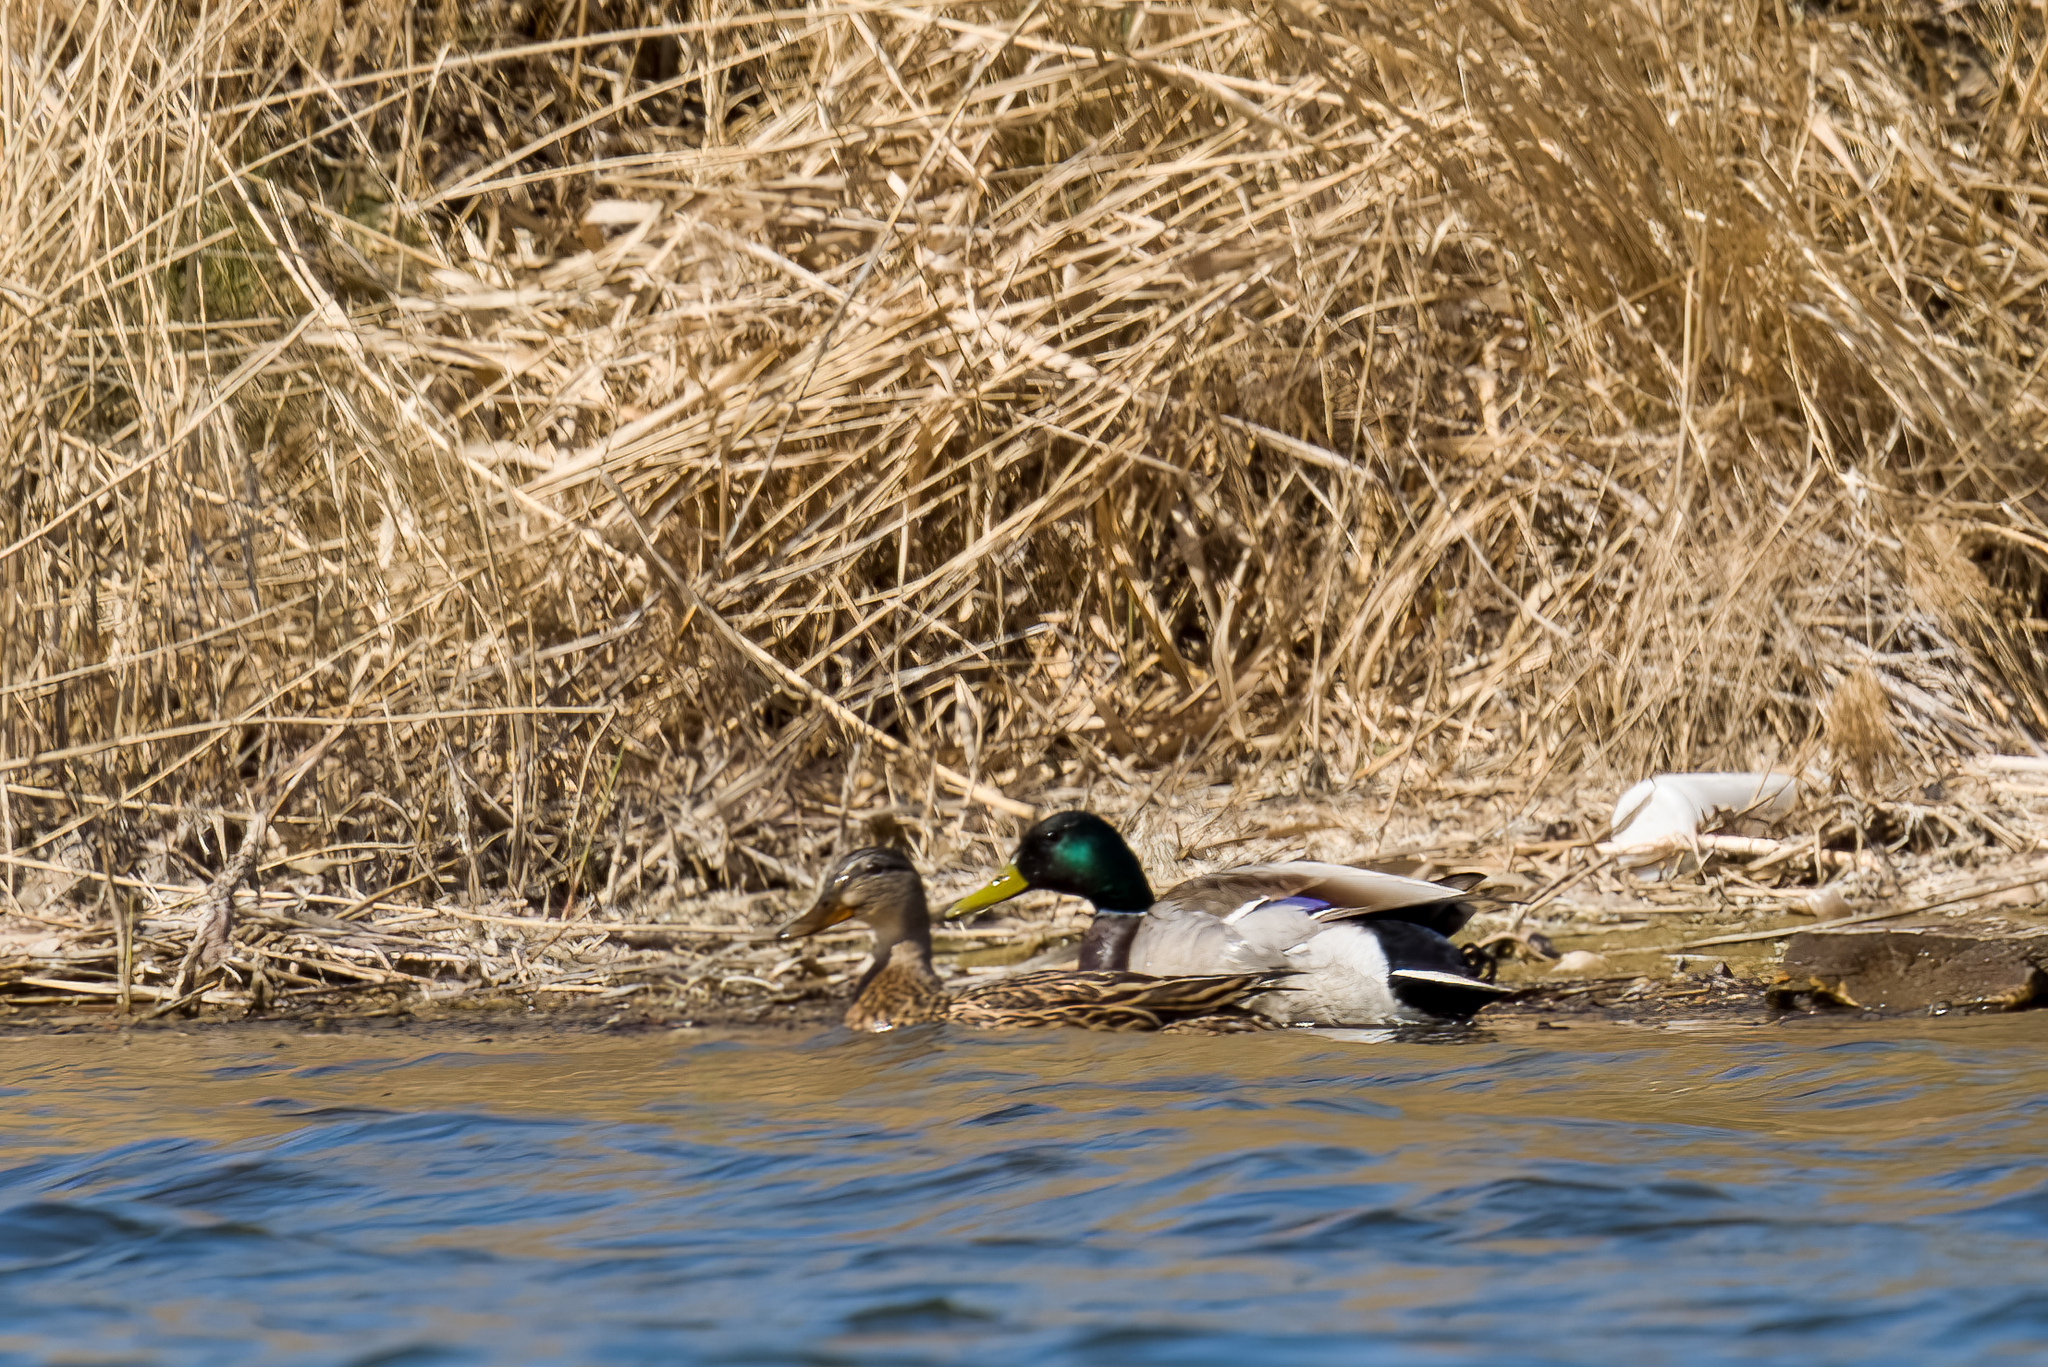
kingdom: Animalia
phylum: Chordata
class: Aves
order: Anseriformes
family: Anatidae
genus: Anas
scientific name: Anas platyrhynchos
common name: Mallard
